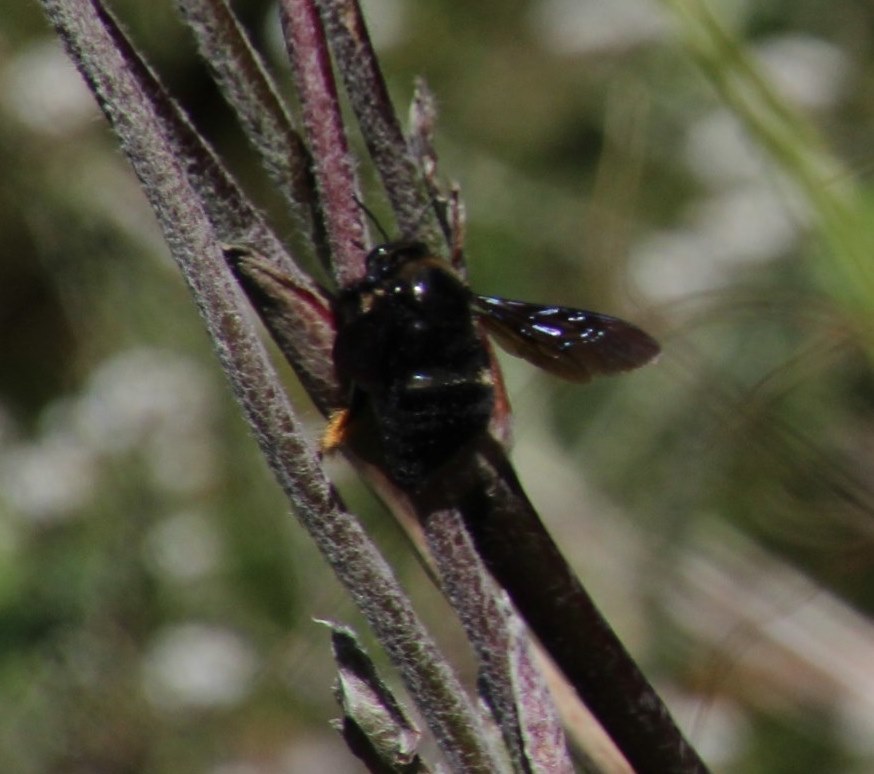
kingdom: Plantae
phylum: Tracheophyta
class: Magnoliopsida
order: Ranunculales
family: Ranunculaceae
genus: Knowltonia
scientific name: Knowltonia tenuifolia
